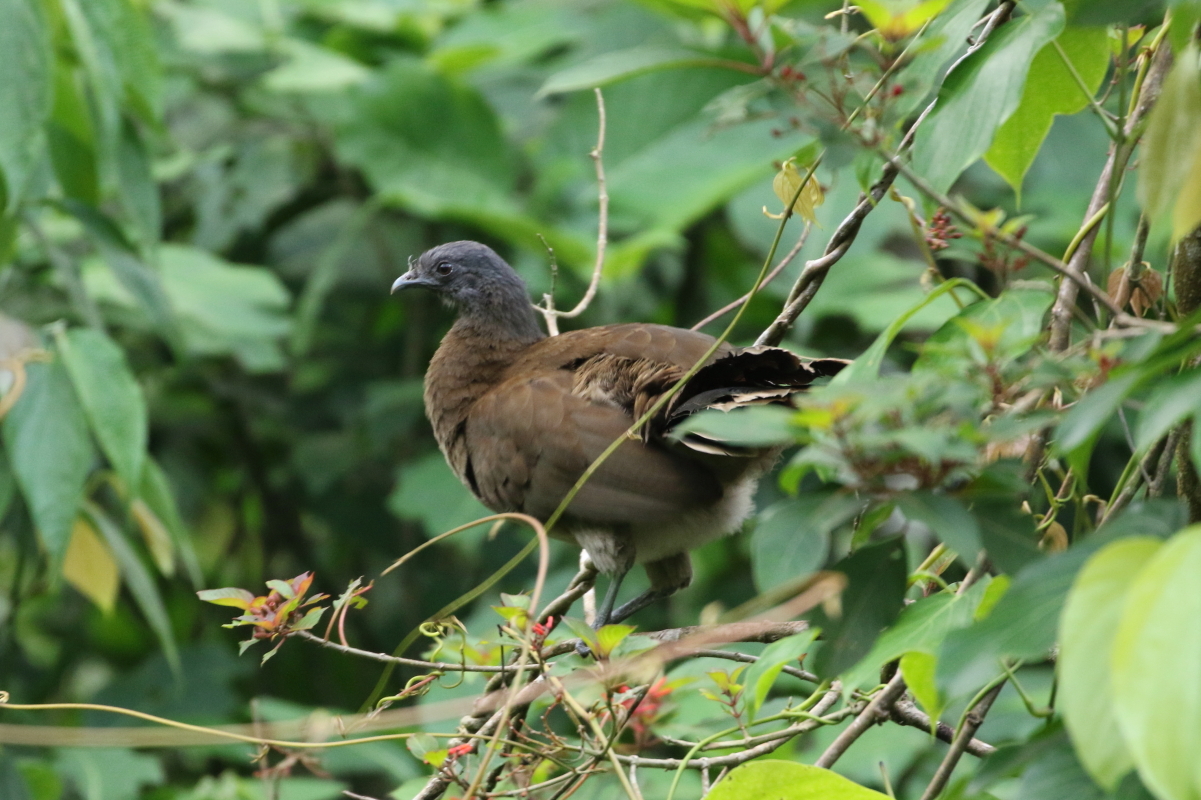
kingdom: Animalia
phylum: Chordata
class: Aves
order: Galliformes
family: Cracidae
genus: Ortalis
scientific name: Ortalis cinereiceps
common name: Grey-headed chachalaca
